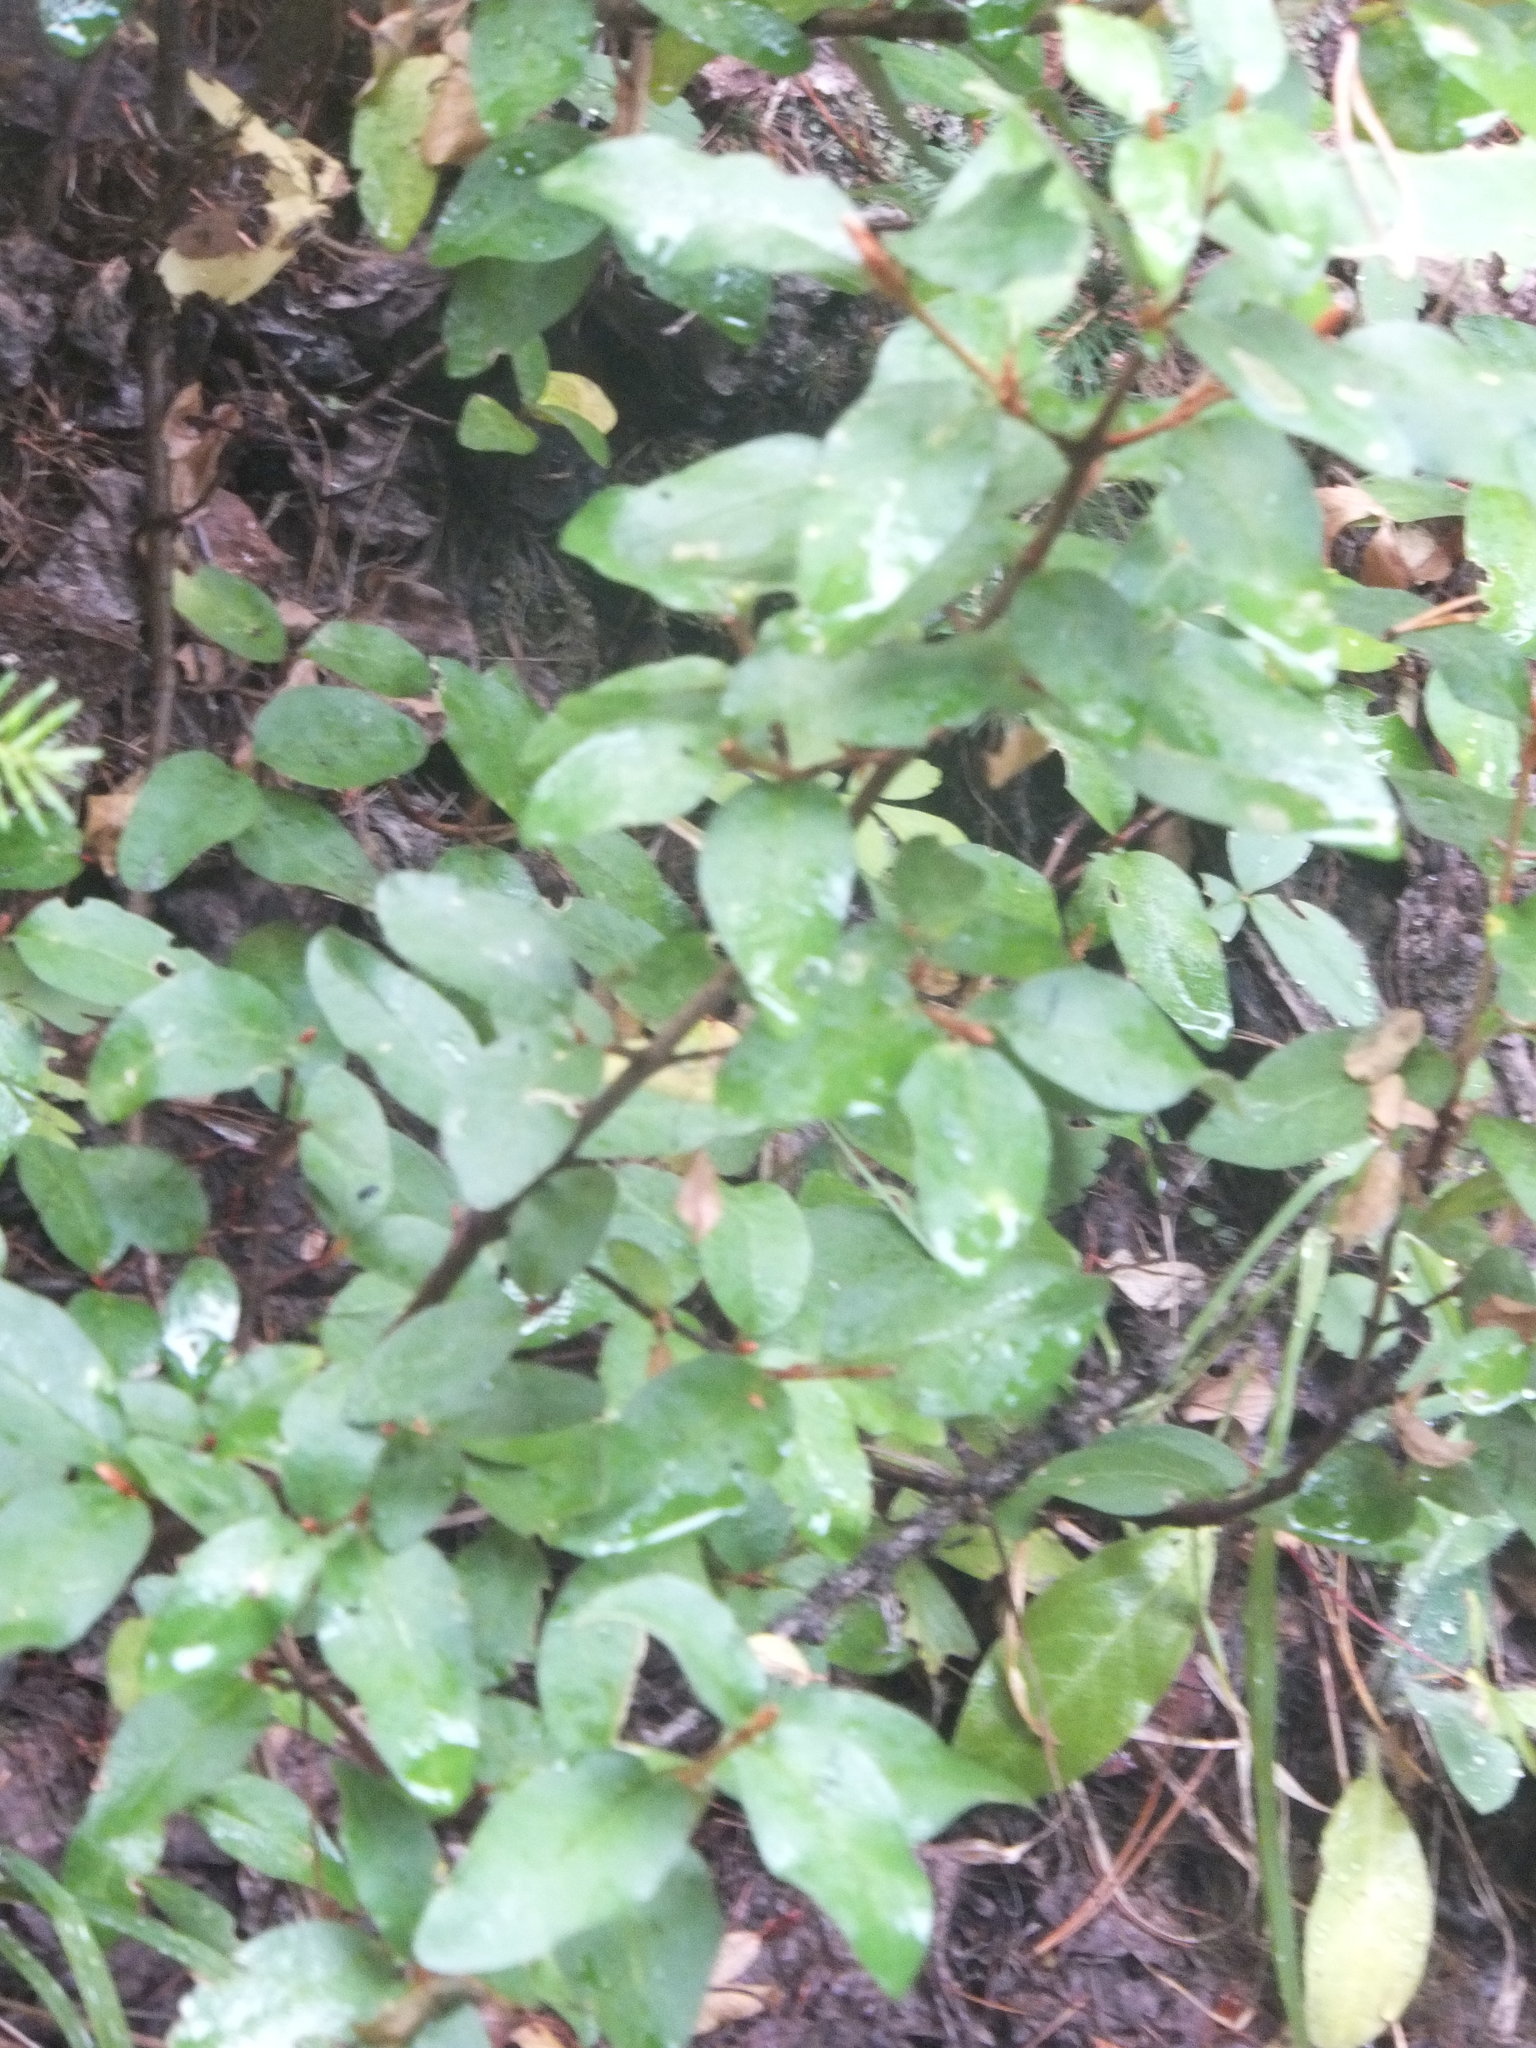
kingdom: Plantae
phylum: Tracheophyta
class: Magnoliopsida
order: Rosales
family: Elaeagnaceae
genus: Shepherdia
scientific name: Shepherdia canadensis
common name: Soapberry
